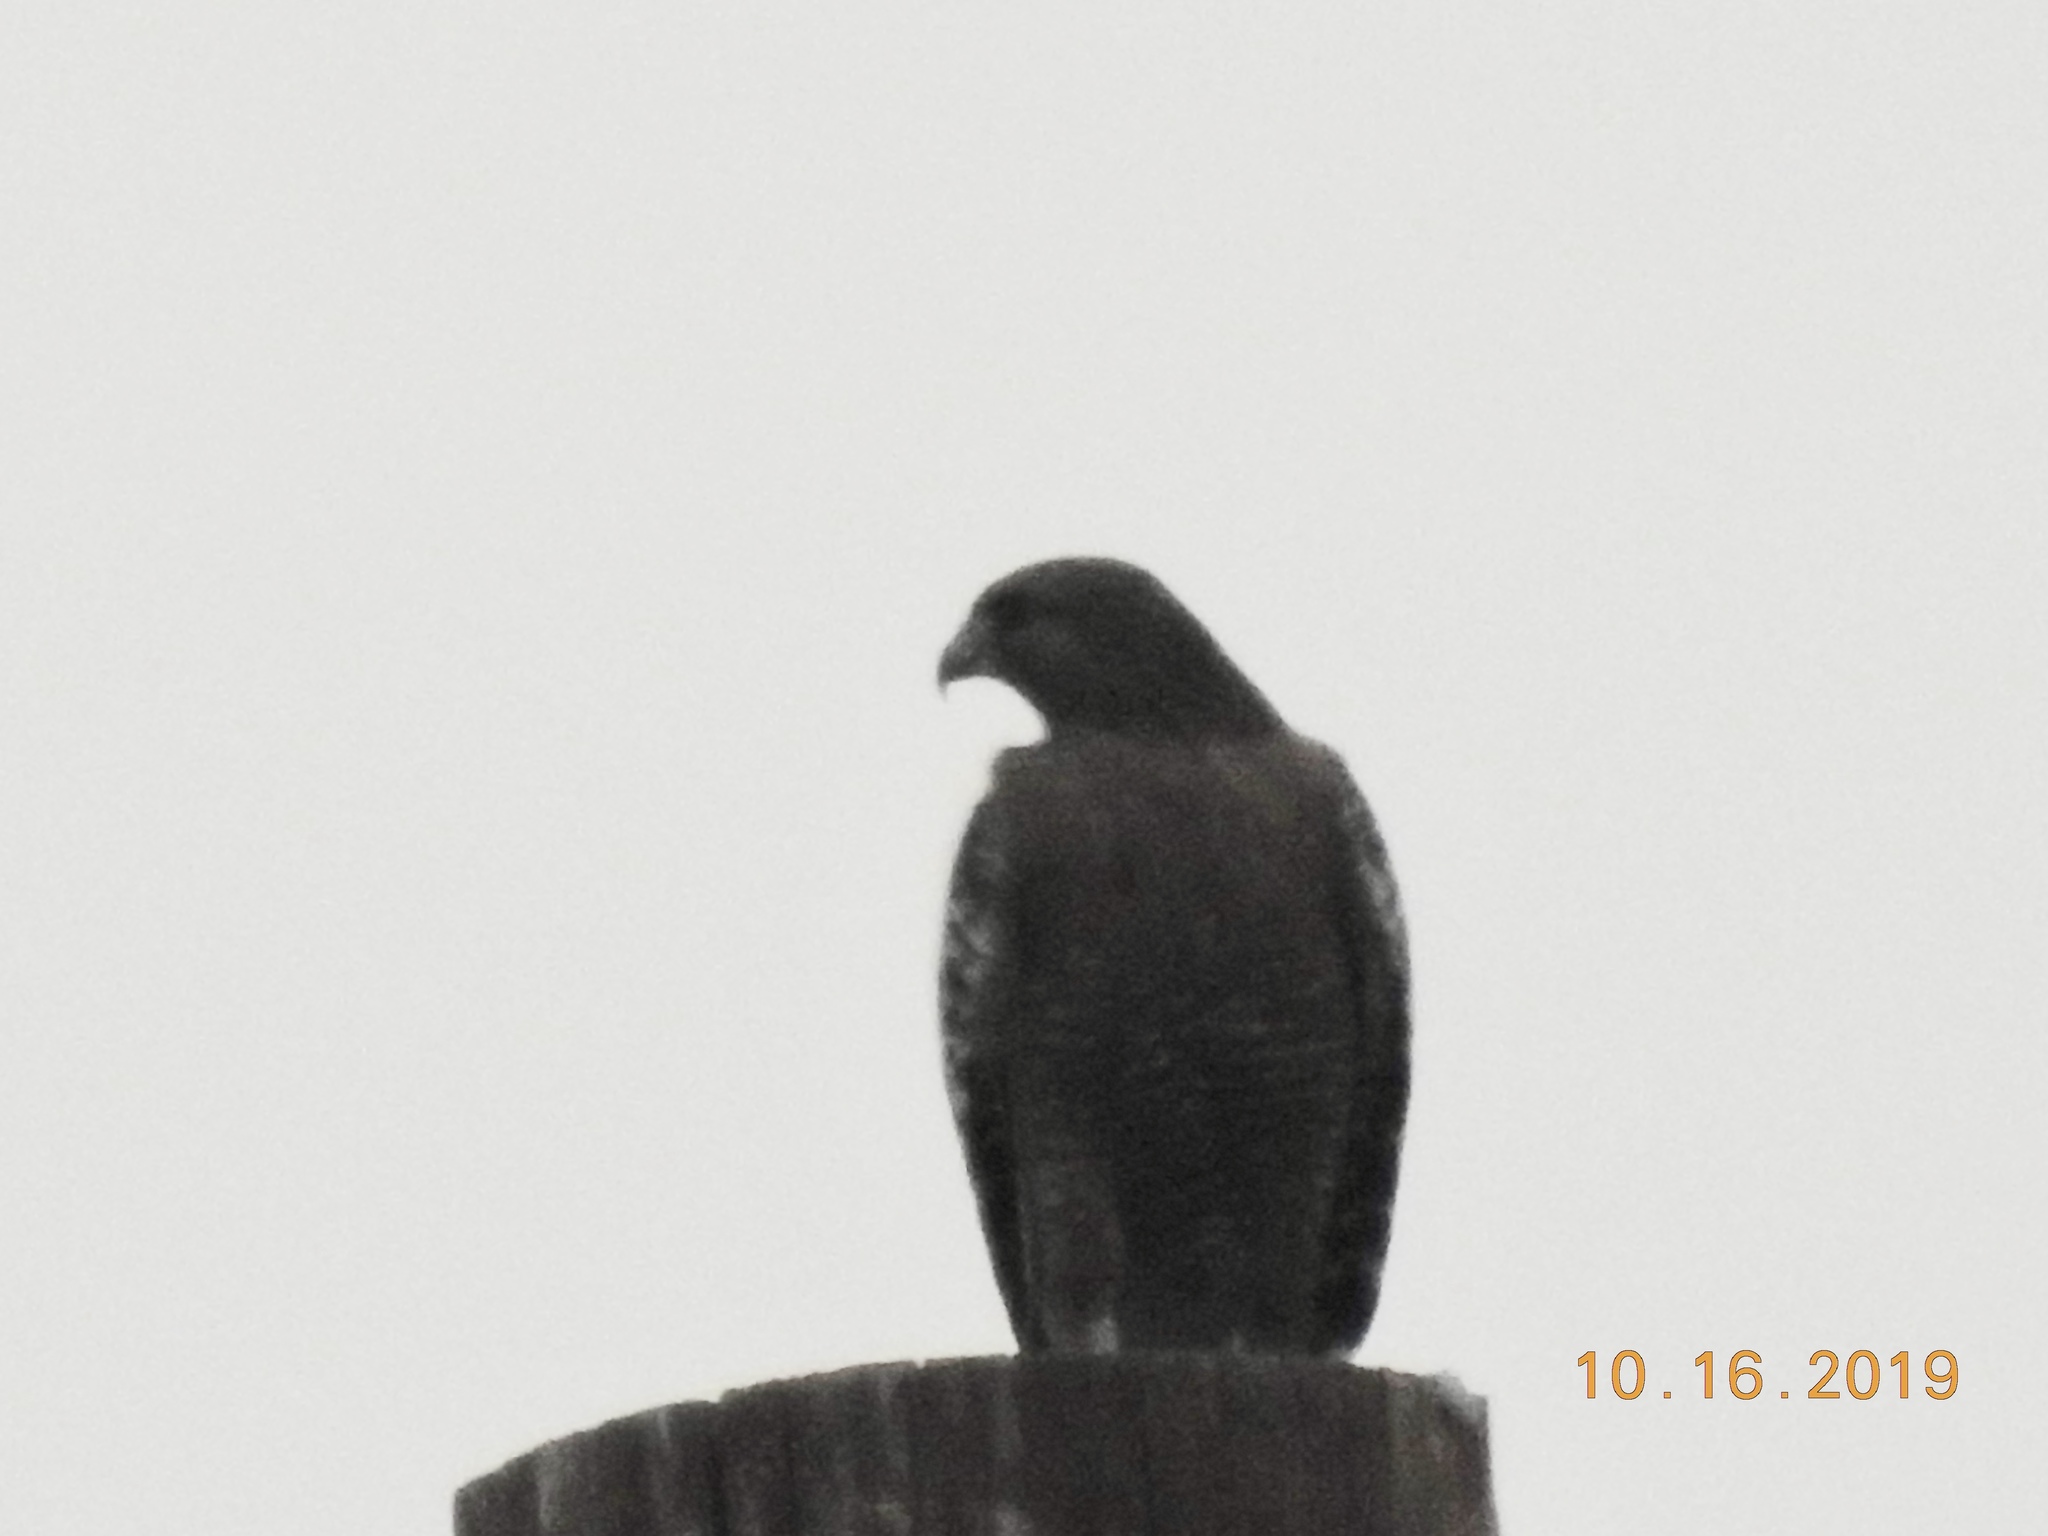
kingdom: Animalia
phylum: Chordata
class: Aves
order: Accipitriformes
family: Accipitridae
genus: Buteo
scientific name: Buteo lineatus
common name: Red-shouldered hawk
